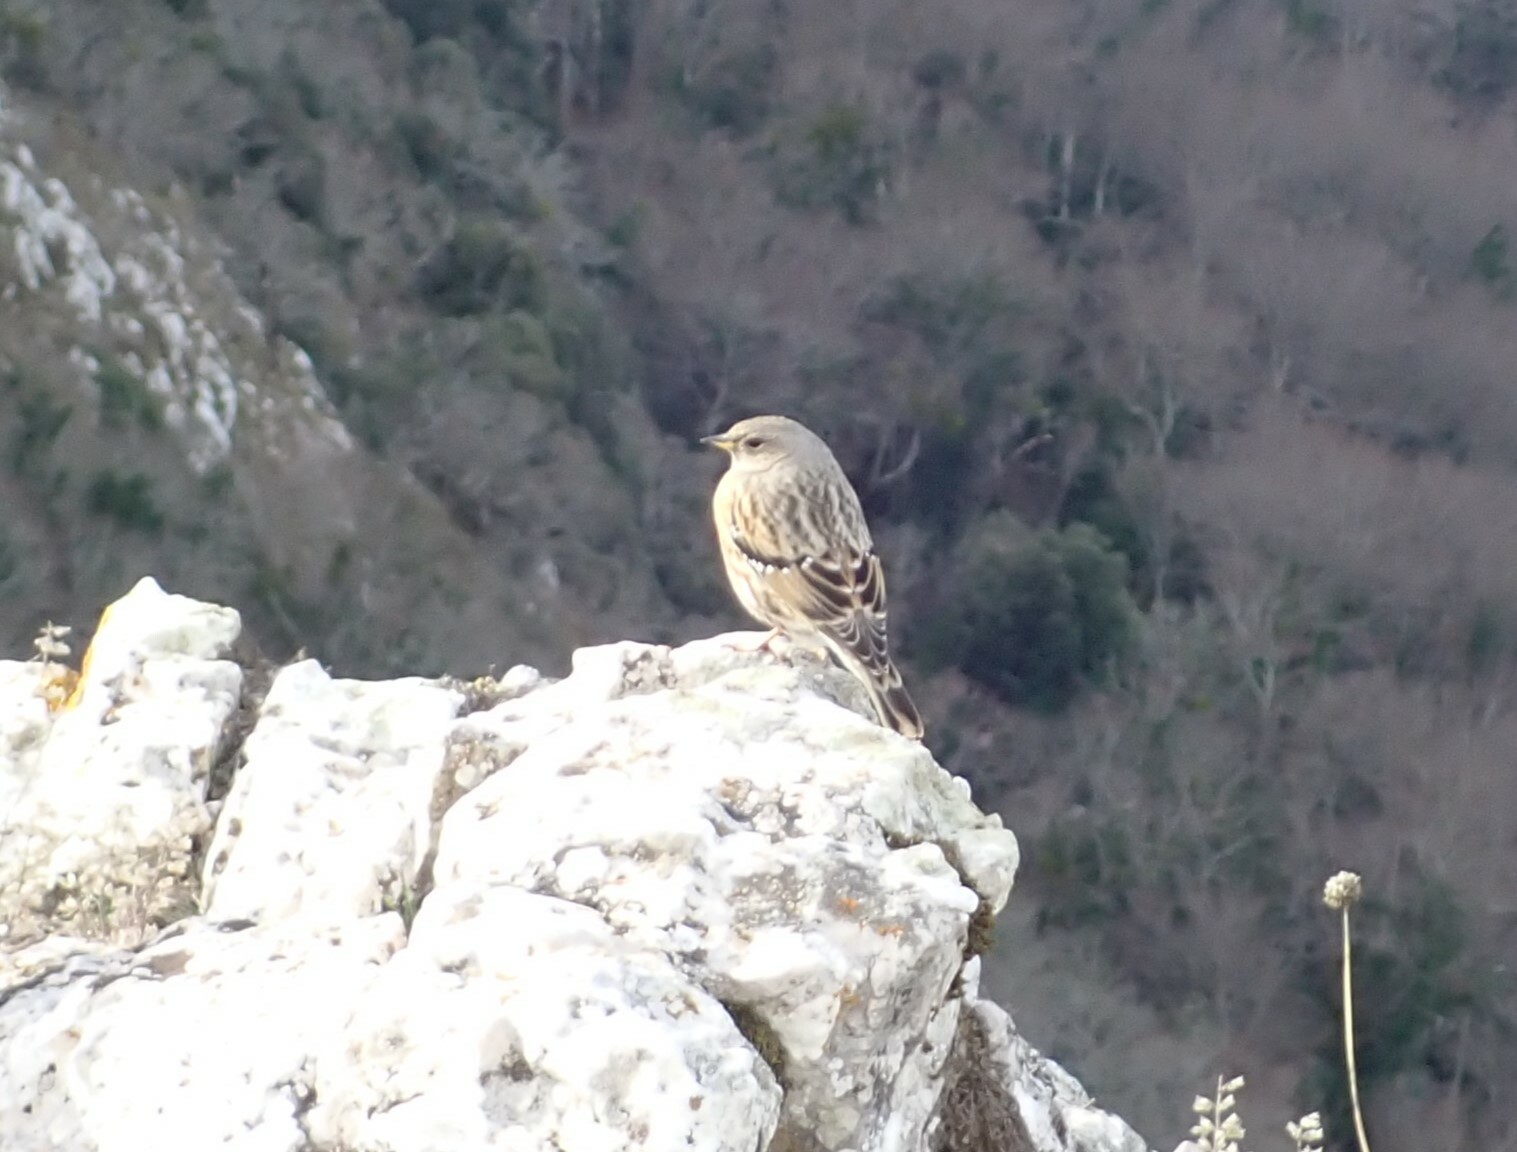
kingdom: Animalia
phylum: Chordata
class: Aves
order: Passeriformes
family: Prunellidae
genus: Prunella
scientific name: Prunella collaris
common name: Alpine accentor
